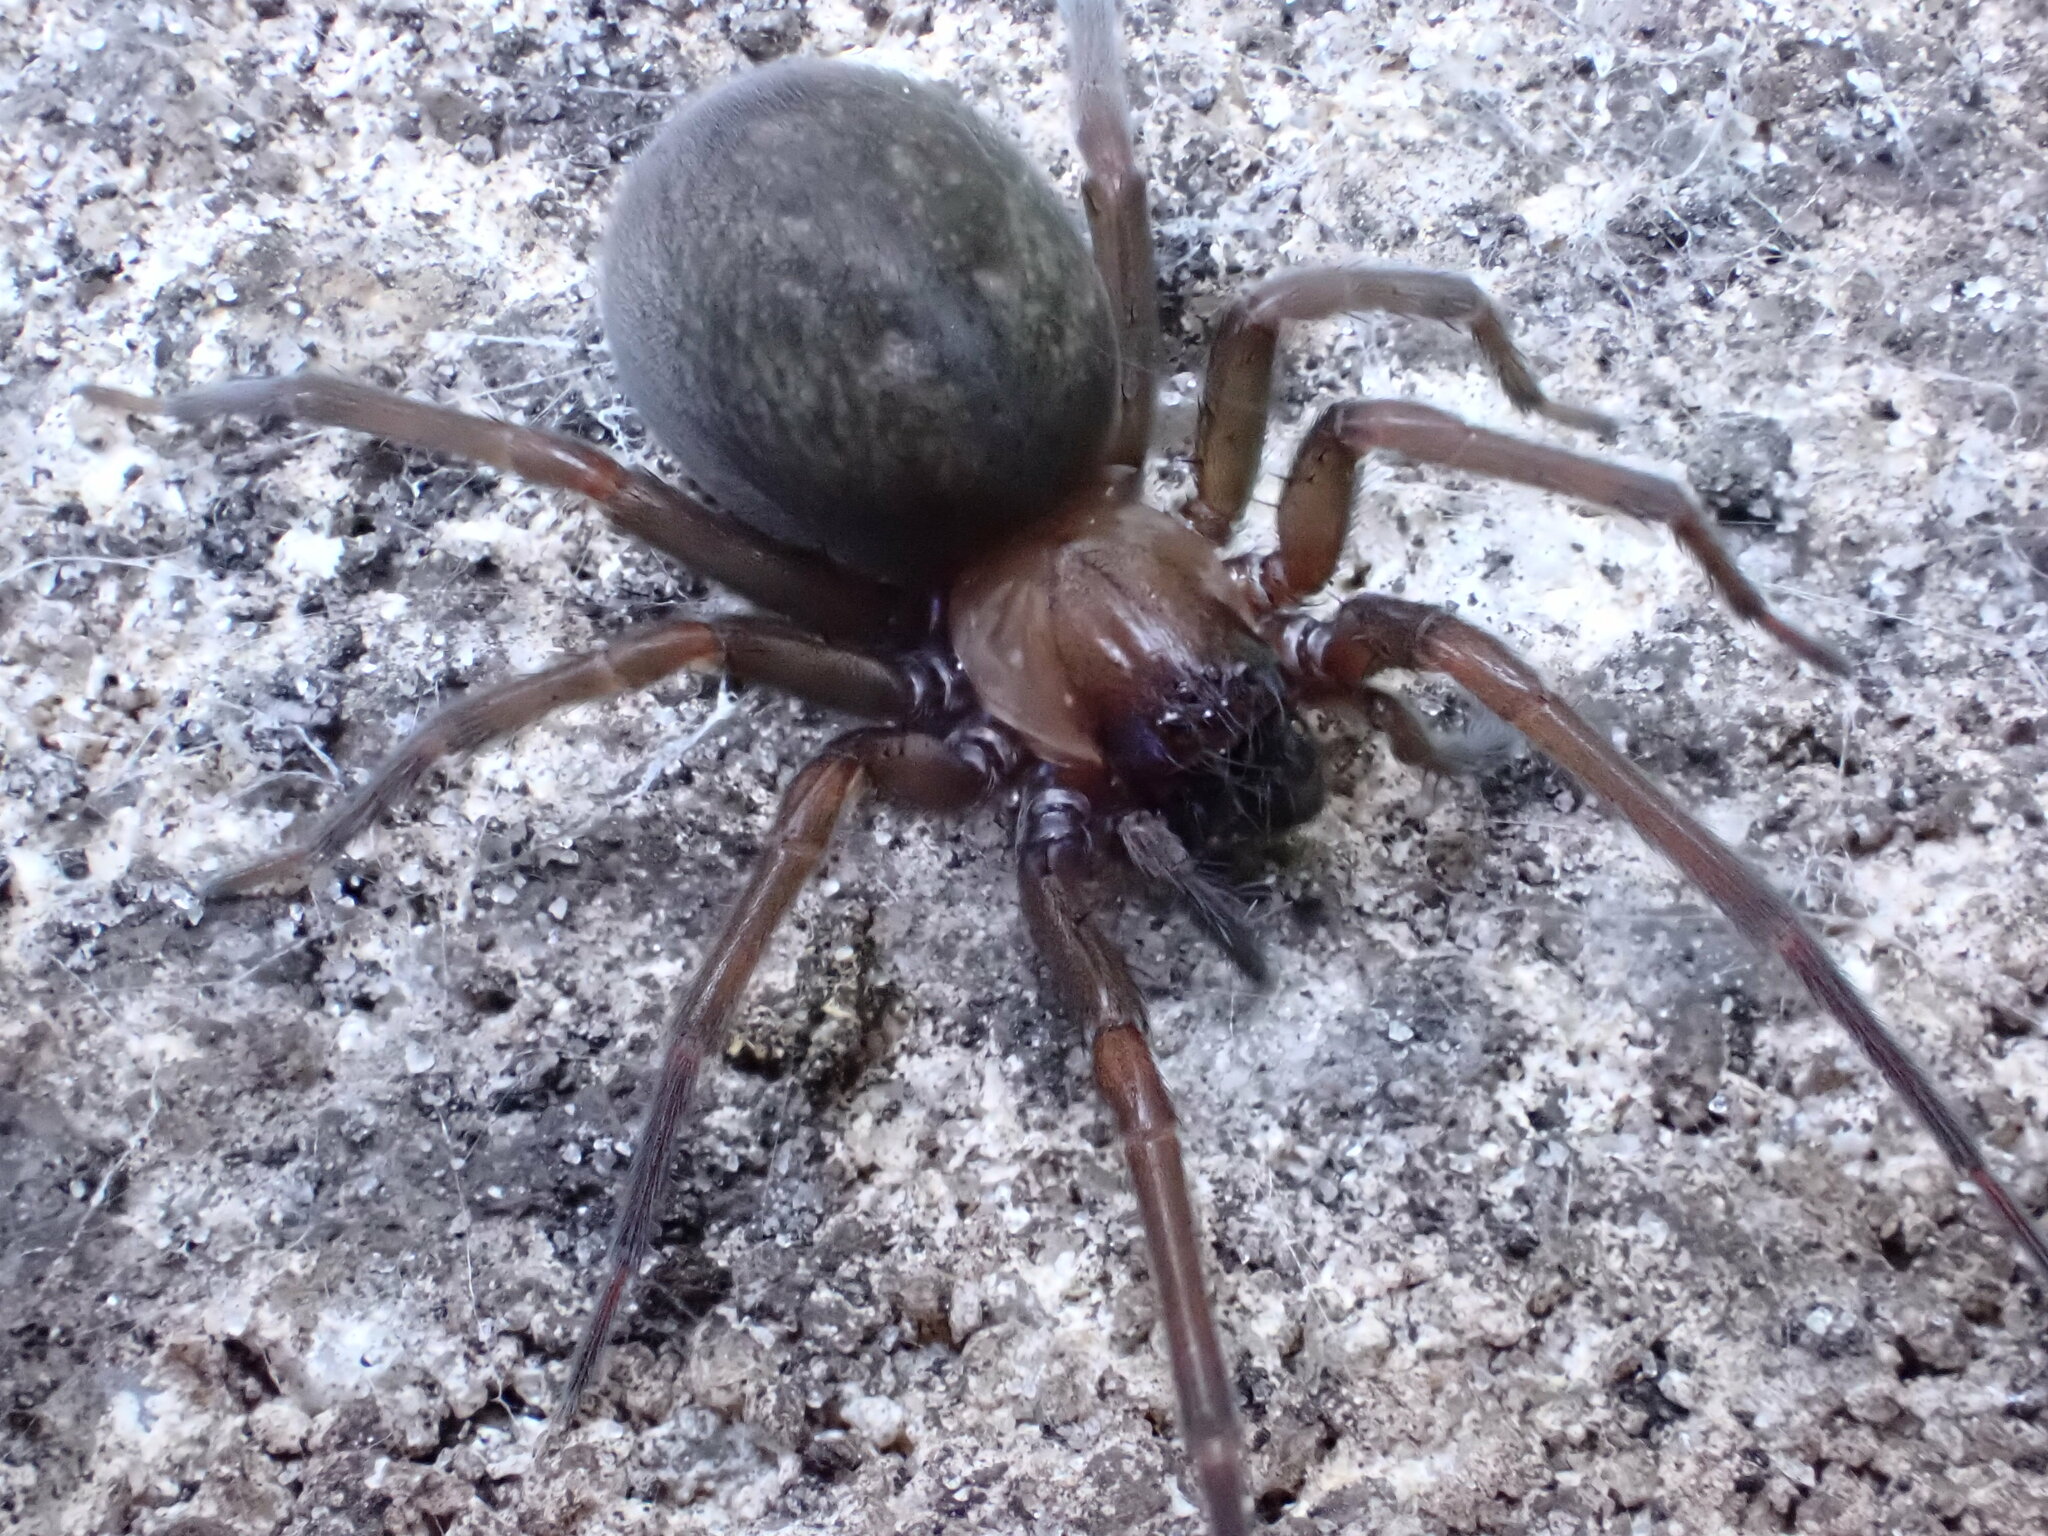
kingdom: Animalia
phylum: Arthropoda
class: Arachnida
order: Araneae
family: Desidae
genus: Metaltella
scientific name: Metaltella simoni
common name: Cribellate spider
